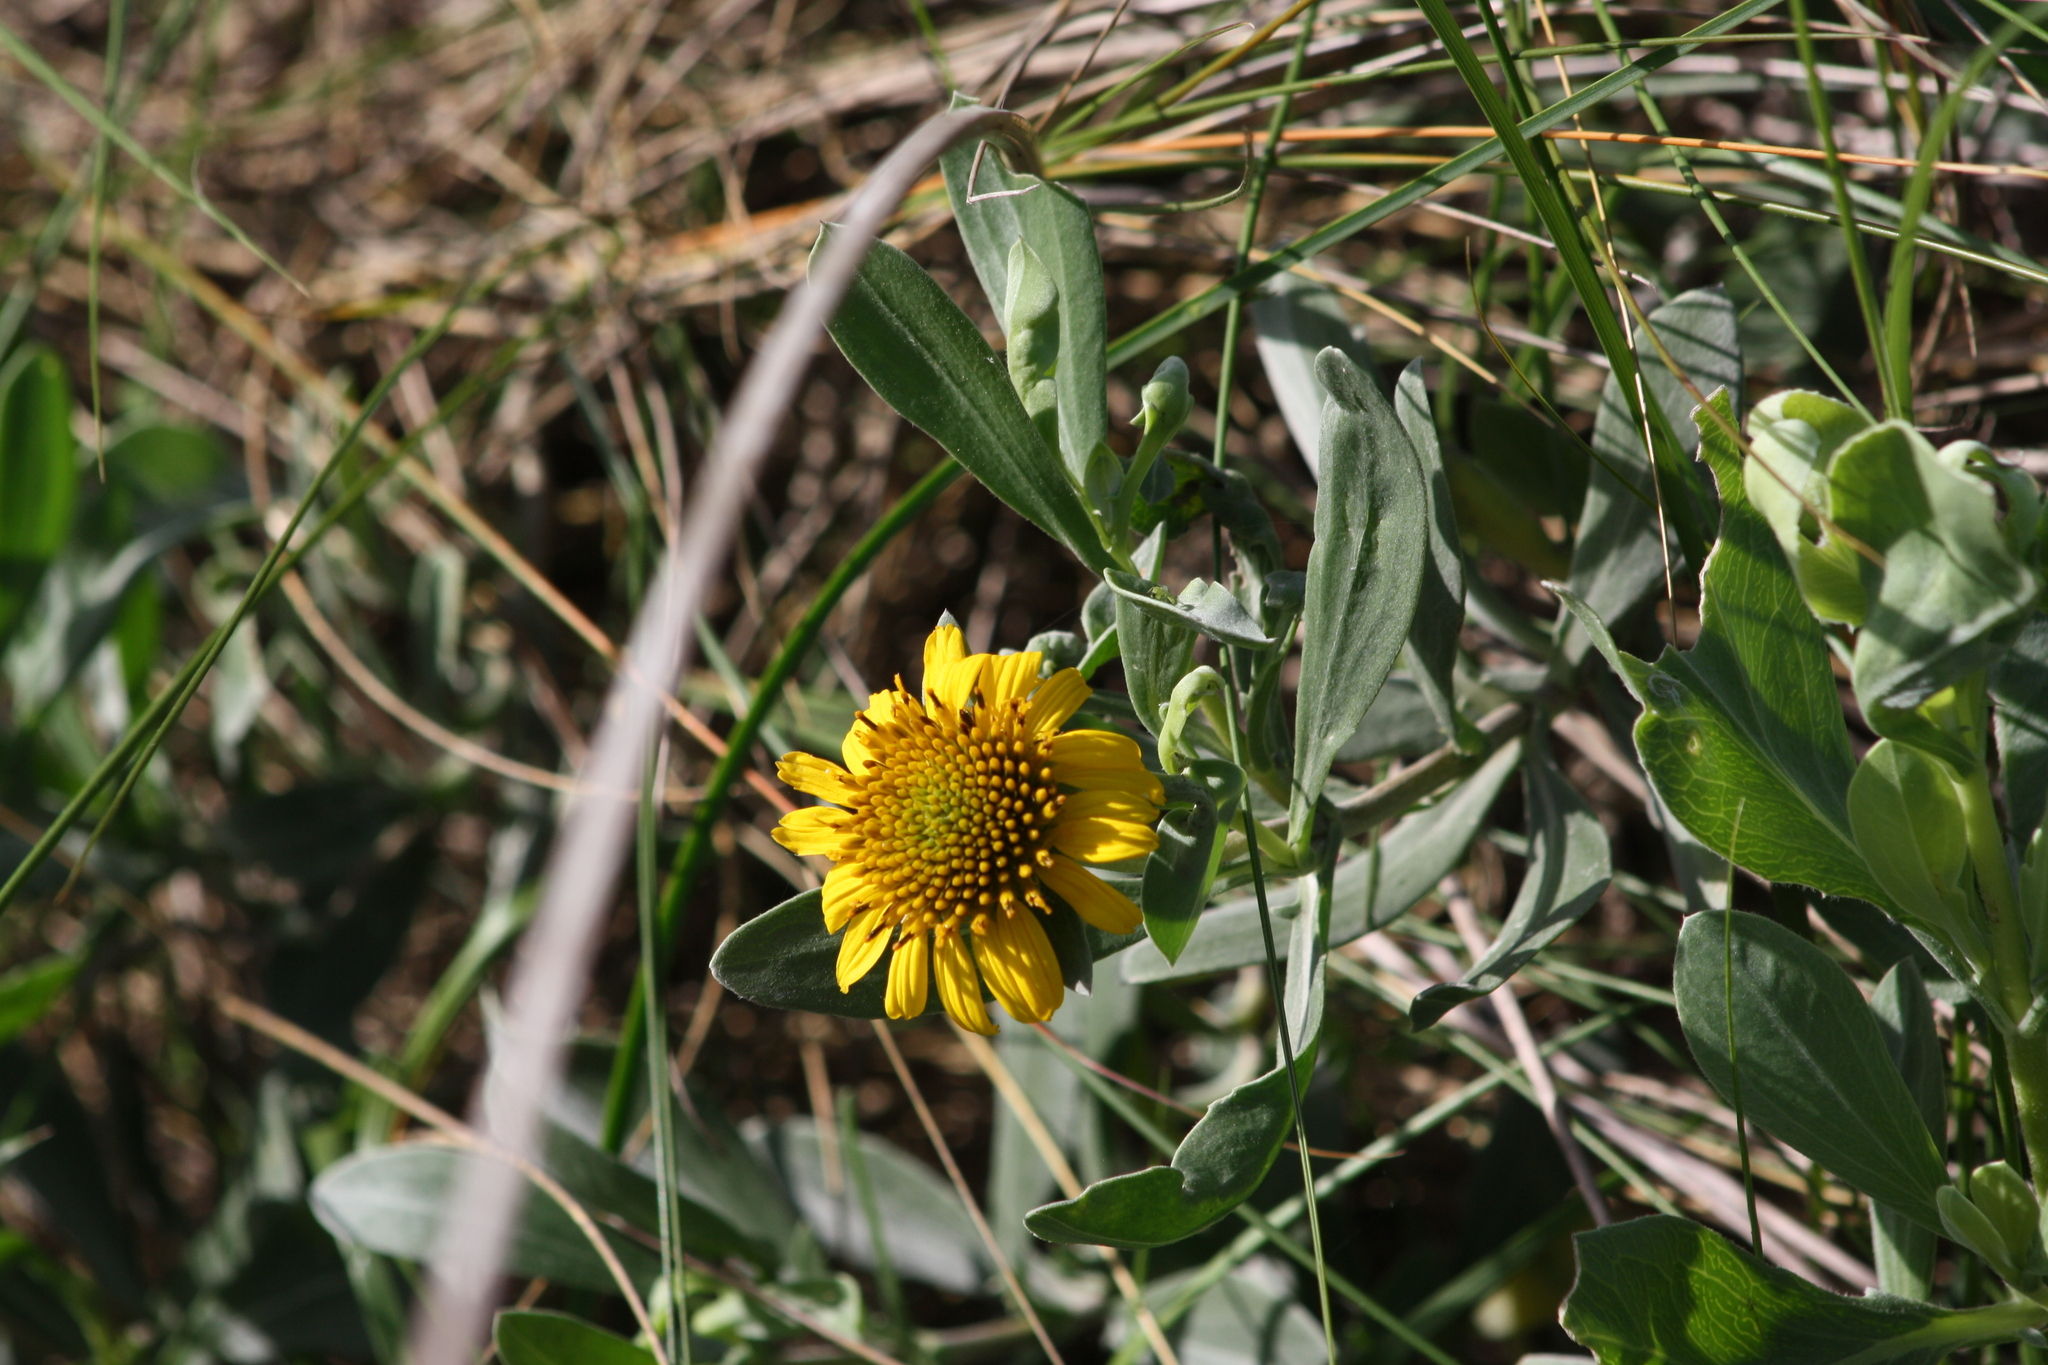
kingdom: Plantae
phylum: Tracheophyta
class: Magnoliopsida
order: Asterales
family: Asteraceae
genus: Borrichia
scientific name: Borrichia frutescens
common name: Sea oxeye
